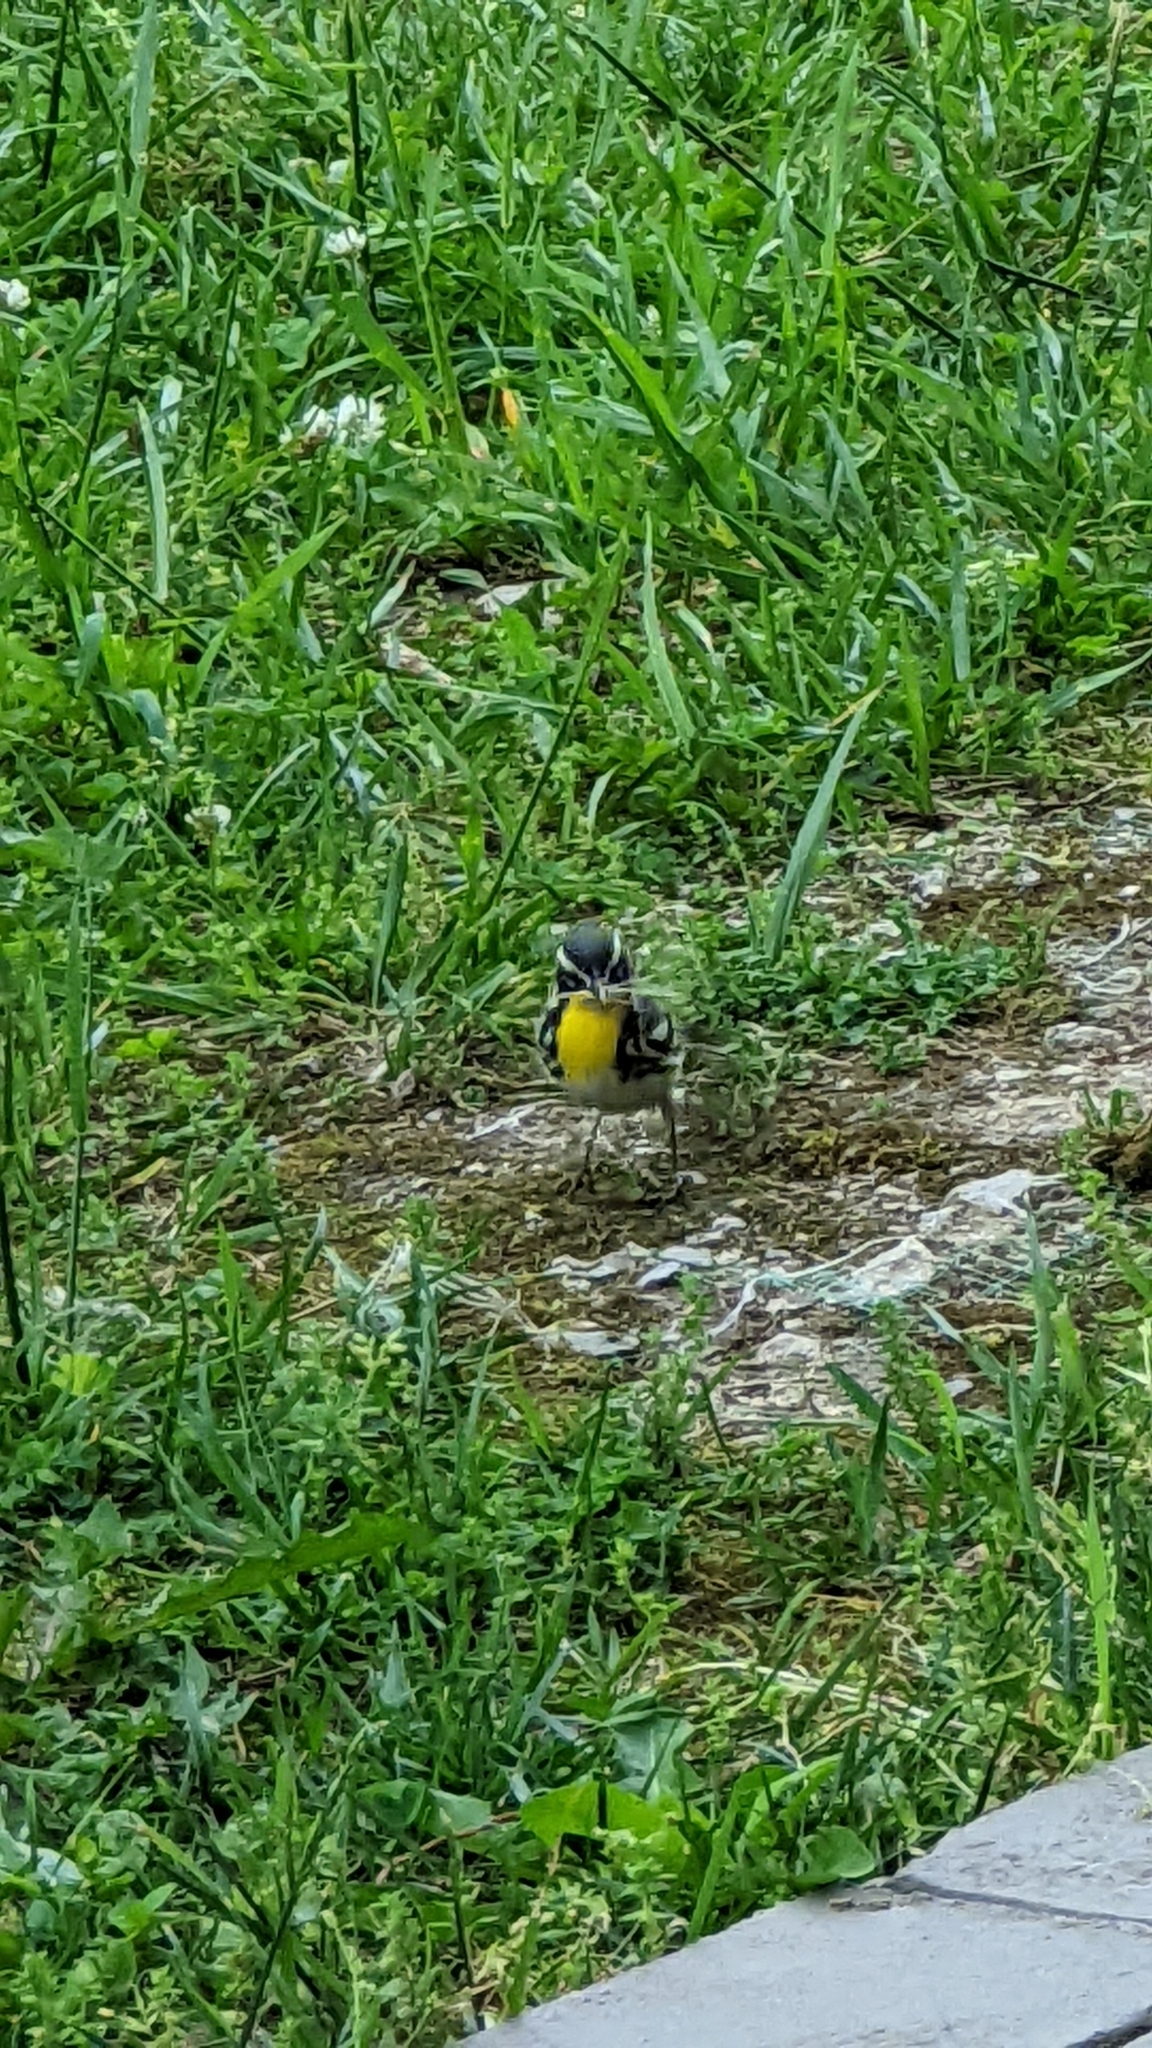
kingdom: Animalia
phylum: Chordata
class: Aves
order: Passeriformes
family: Parulidae
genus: Setophaga
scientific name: Setophaga dominica
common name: Yellow-throated warbler
